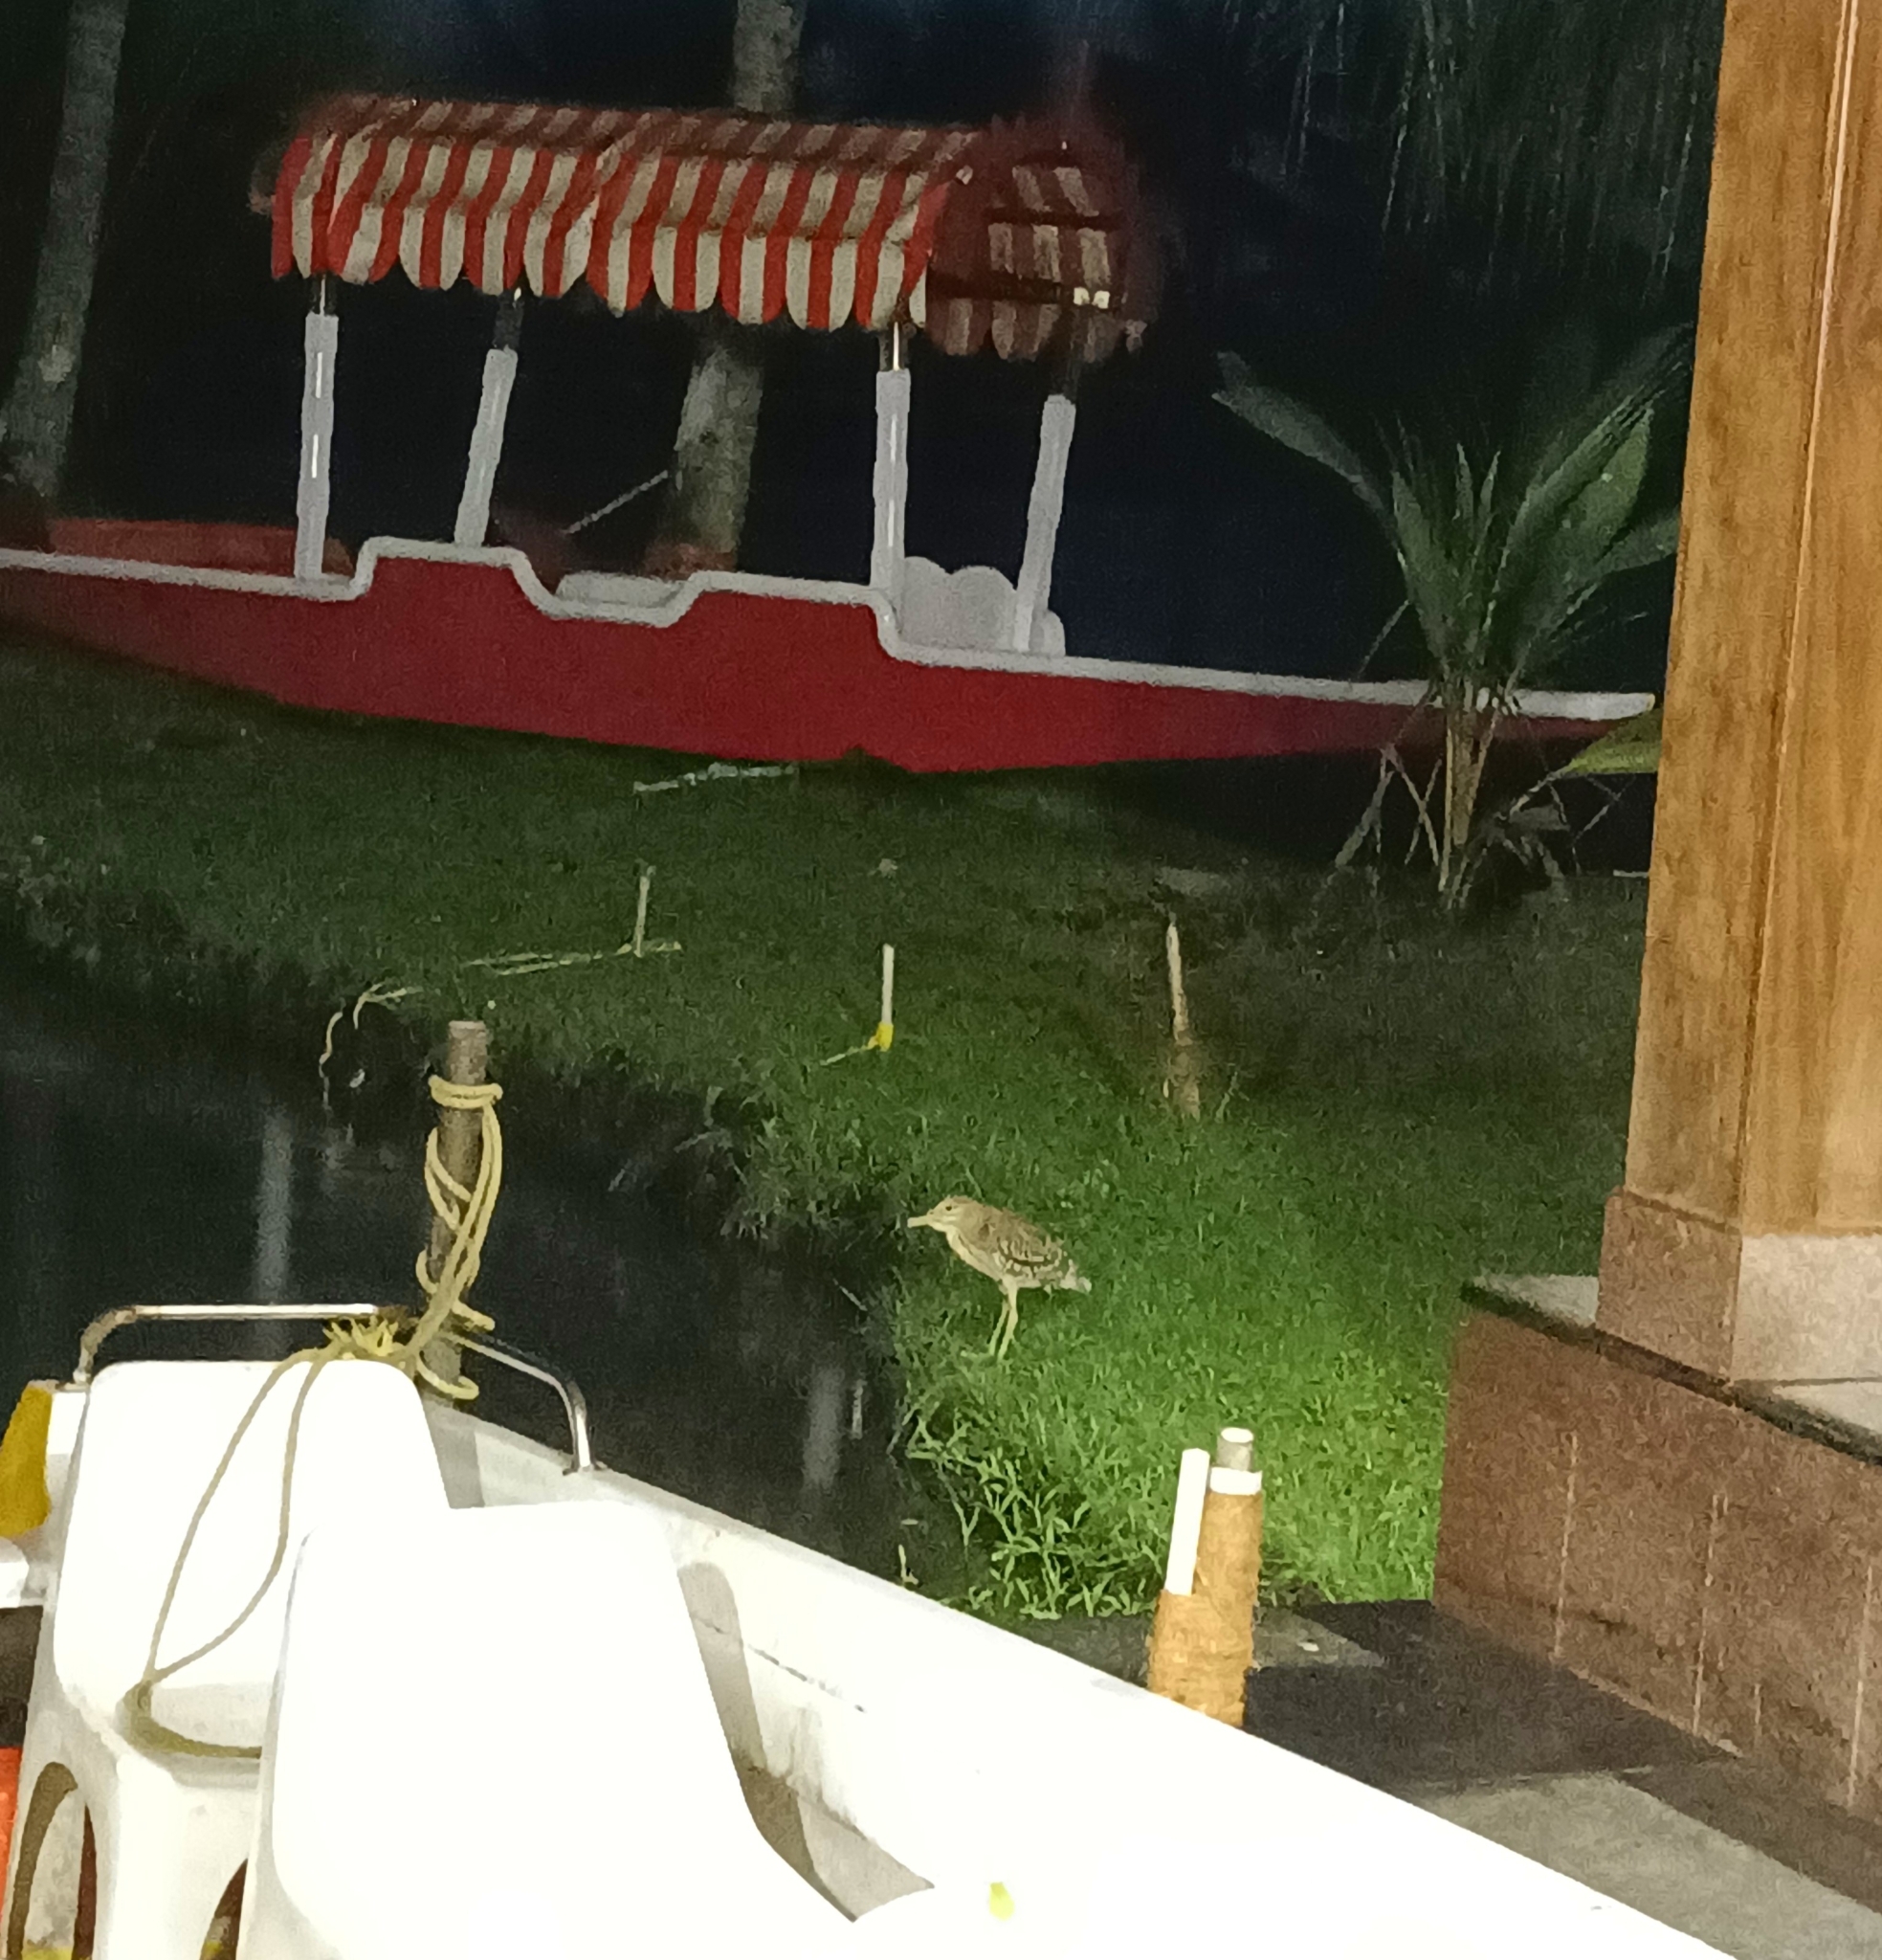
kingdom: Animalia
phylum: Chordata
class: Aves
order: Pelecaniformes
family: Ardeidae
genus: Nycticorax
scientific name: Nycticorax nycticorax
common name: Black-crowned night heron
